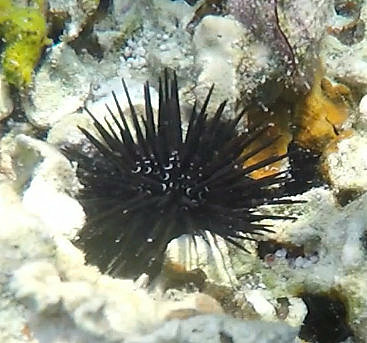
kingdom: Animalia
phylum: Echinodermata
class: Echinoidea
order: Camarodonta
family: Parasaleniidae
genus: Parasalenia
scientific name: Parasalenia gratiosa
